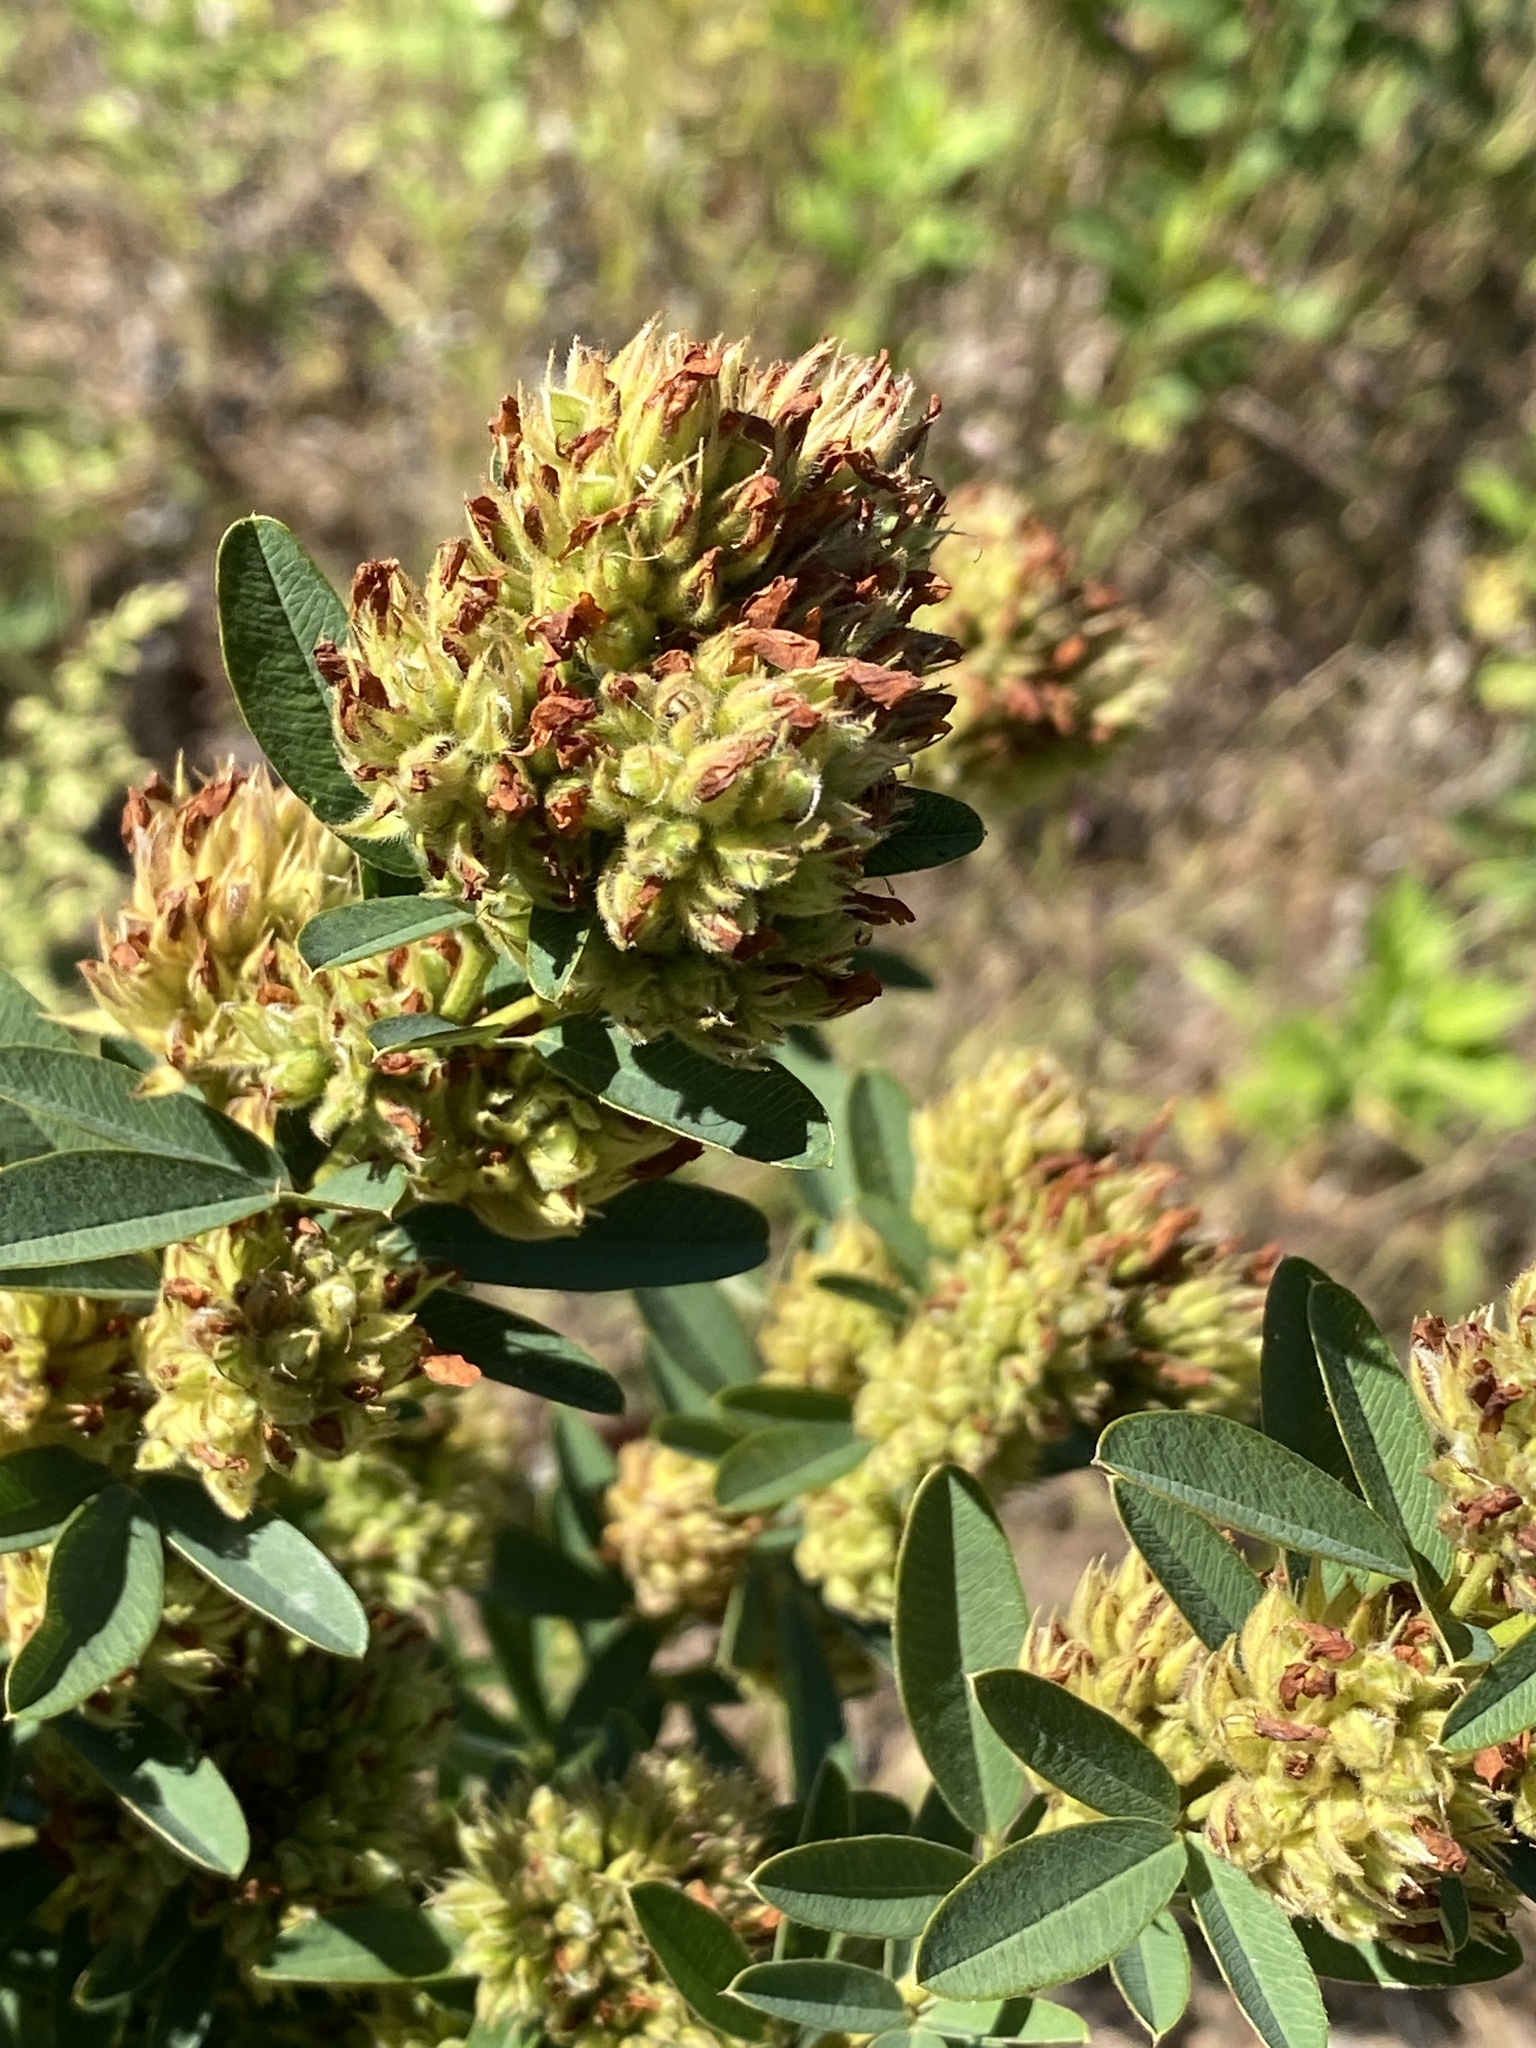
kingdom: Plantae
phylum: Tracheophyta
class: Magnoliopsida
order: Fabales
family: Fabaceae
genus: Lespedeza
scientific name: Lespedeza capitata
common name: Dusty clover
